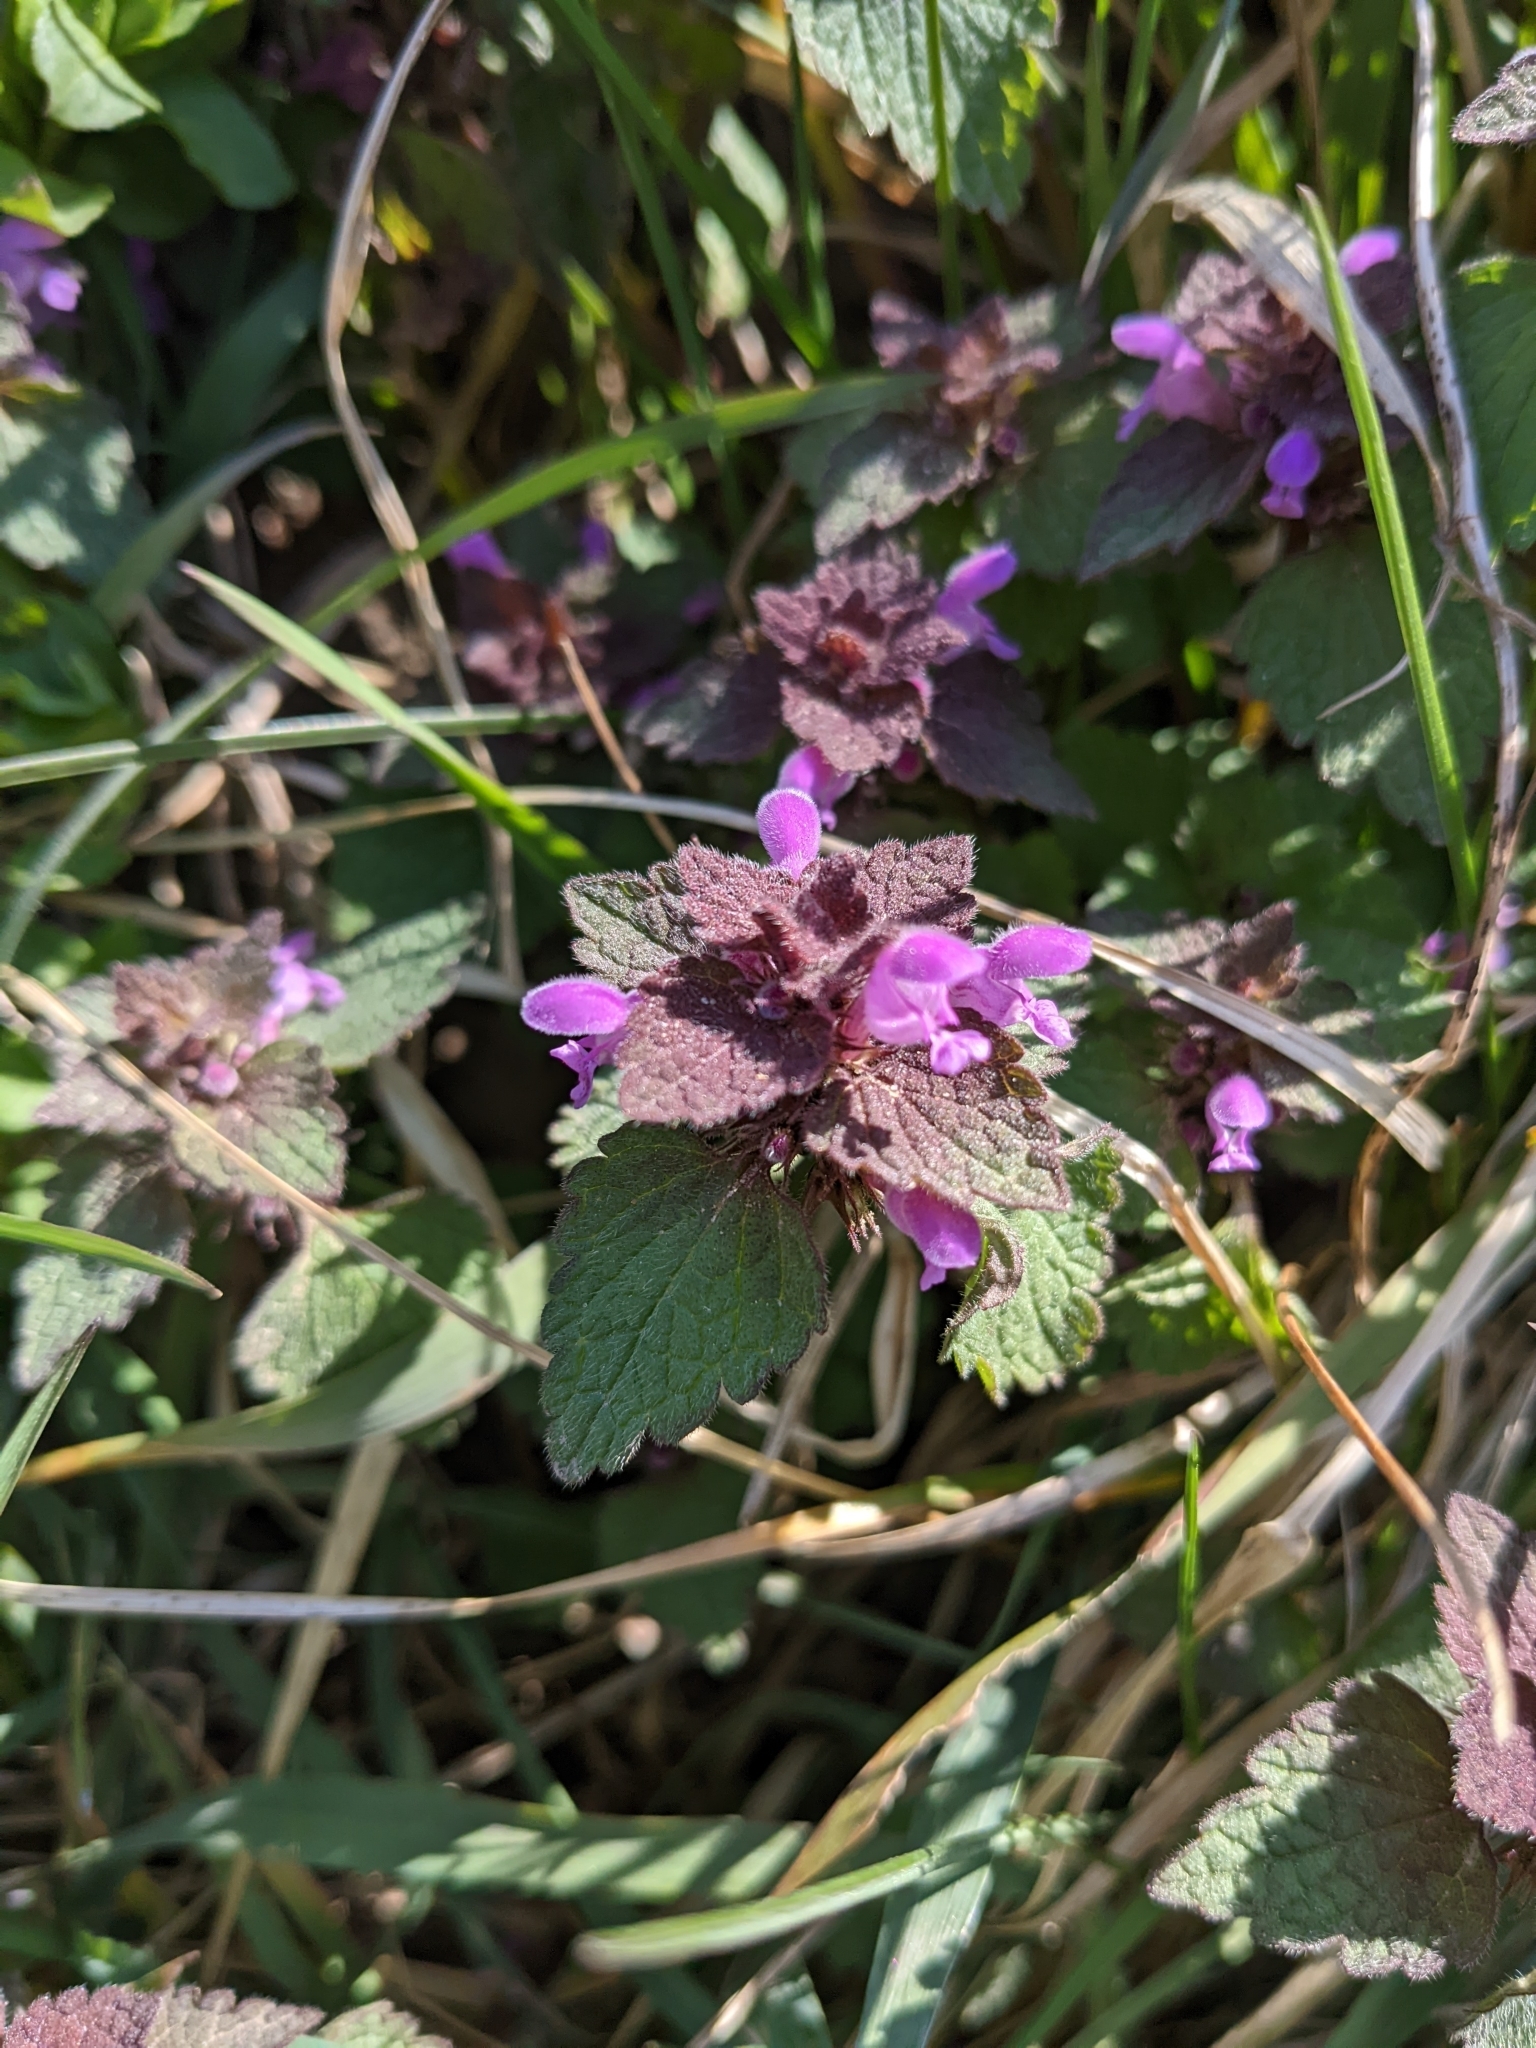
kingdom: Plantae
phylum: Tracheophyta
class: Magnoliopsida
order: Lamiales
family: Lamiaceae
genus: Lamium
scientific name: Lamium purpureum
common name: Red dead-nettle
